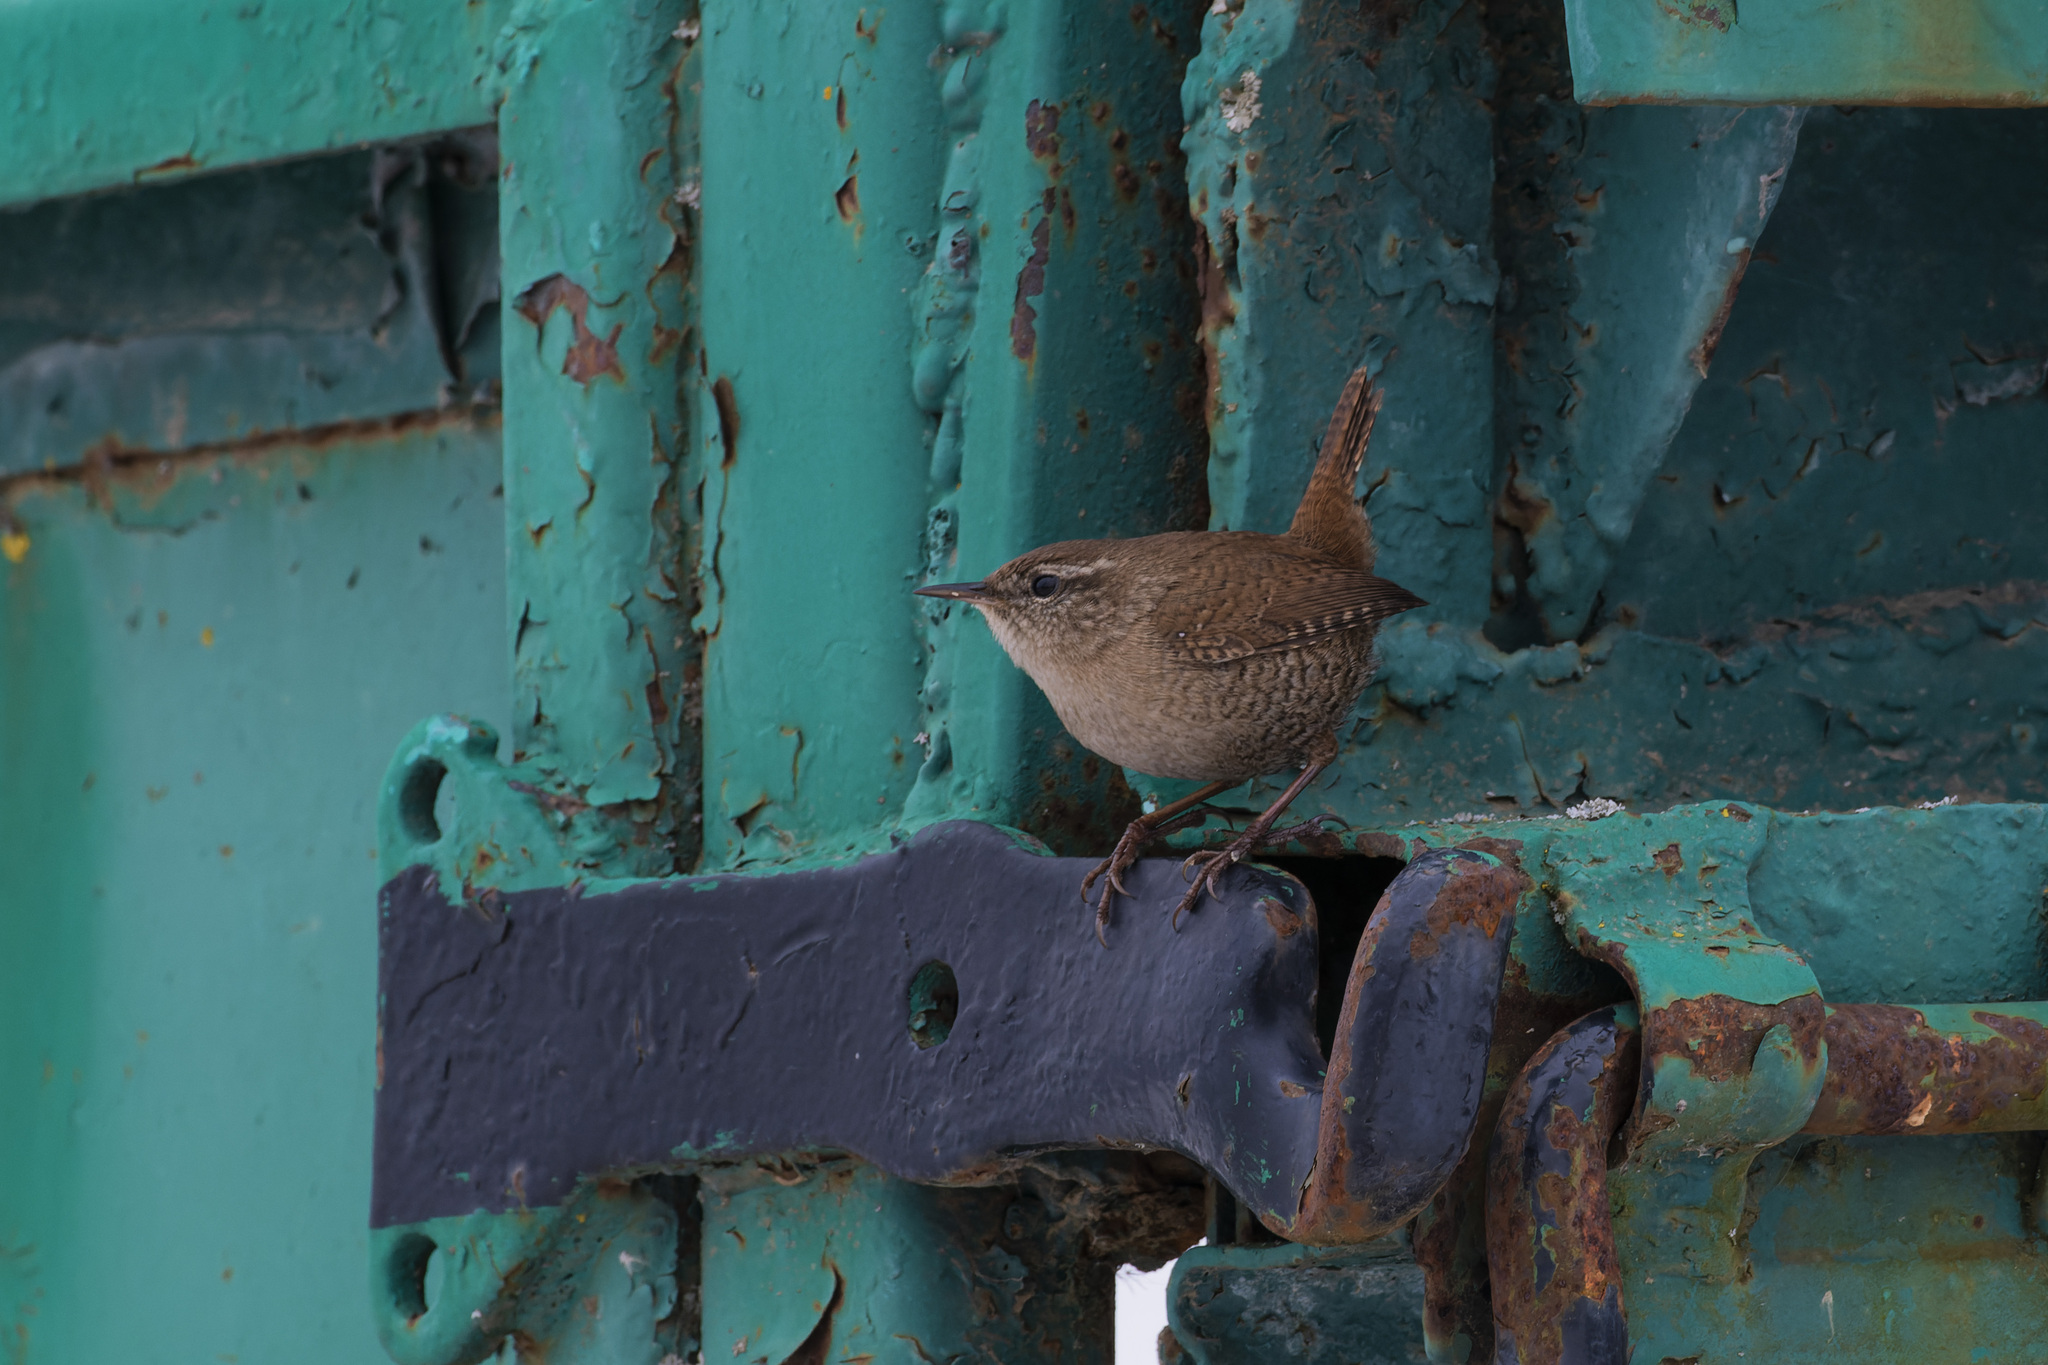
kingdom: Animalia
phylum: Chordata
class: Aves
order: Passeriformes
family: Troglodytidae
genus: Troglodytes
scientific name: Troglodytes troglodytes
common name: Eurasian wren
